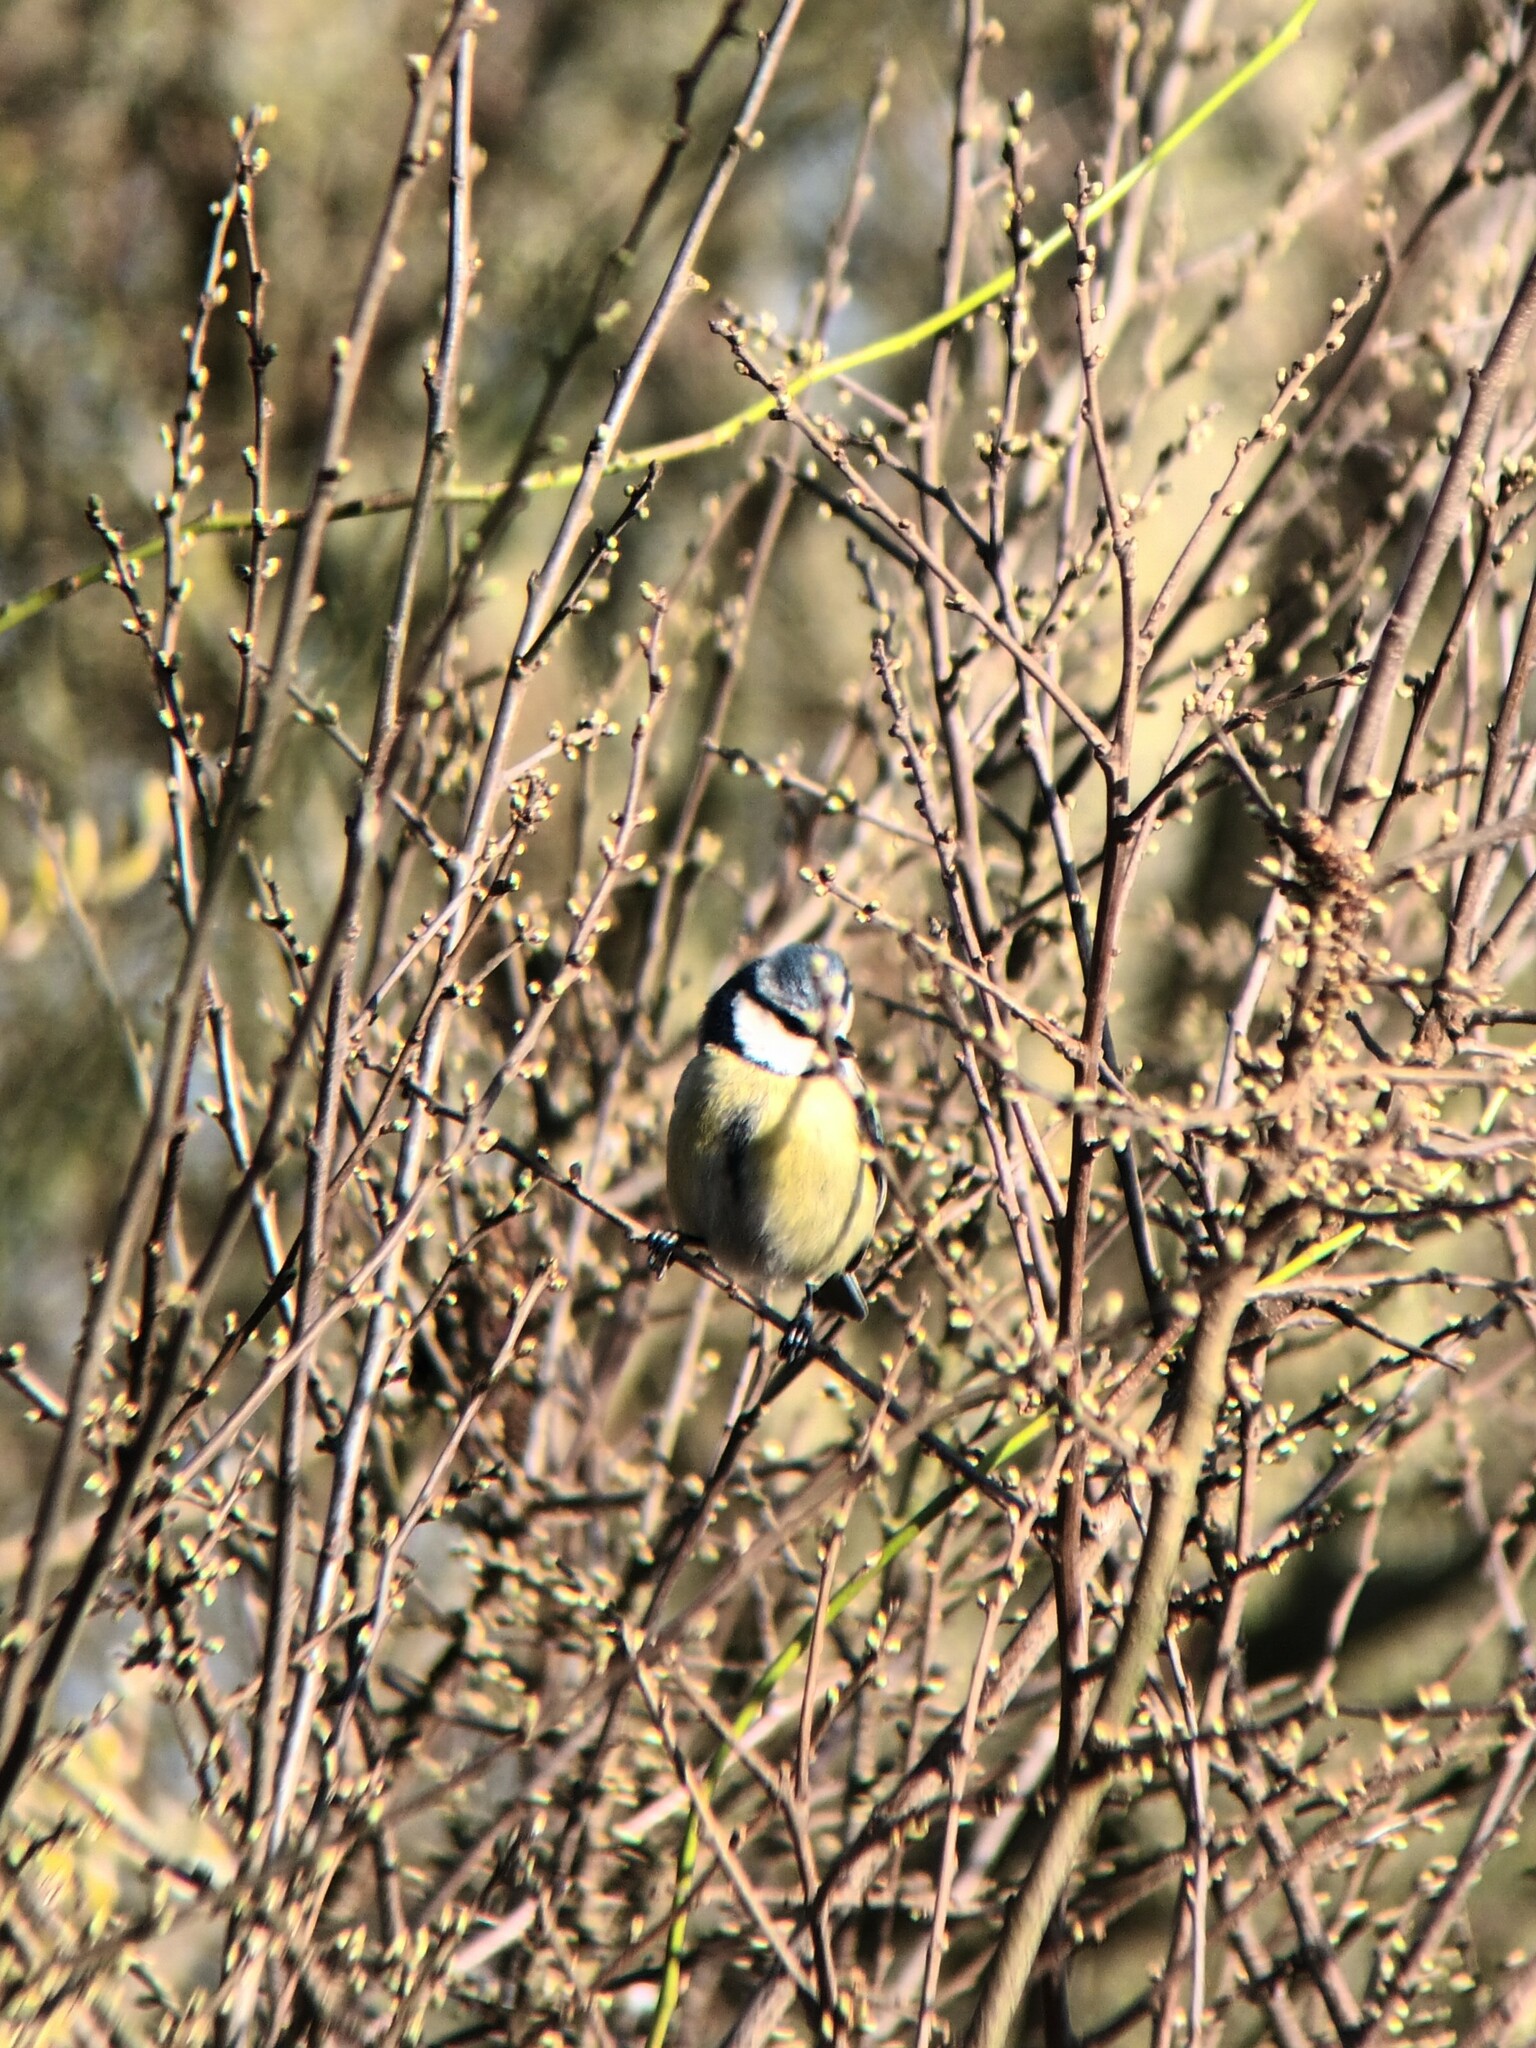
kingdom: Animalia
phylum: Chordata
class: Aves
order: Passeriformes
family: Paridae
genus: Cyanistes
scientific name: Cyanistes caeruleus
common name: Eurasian blue tit
